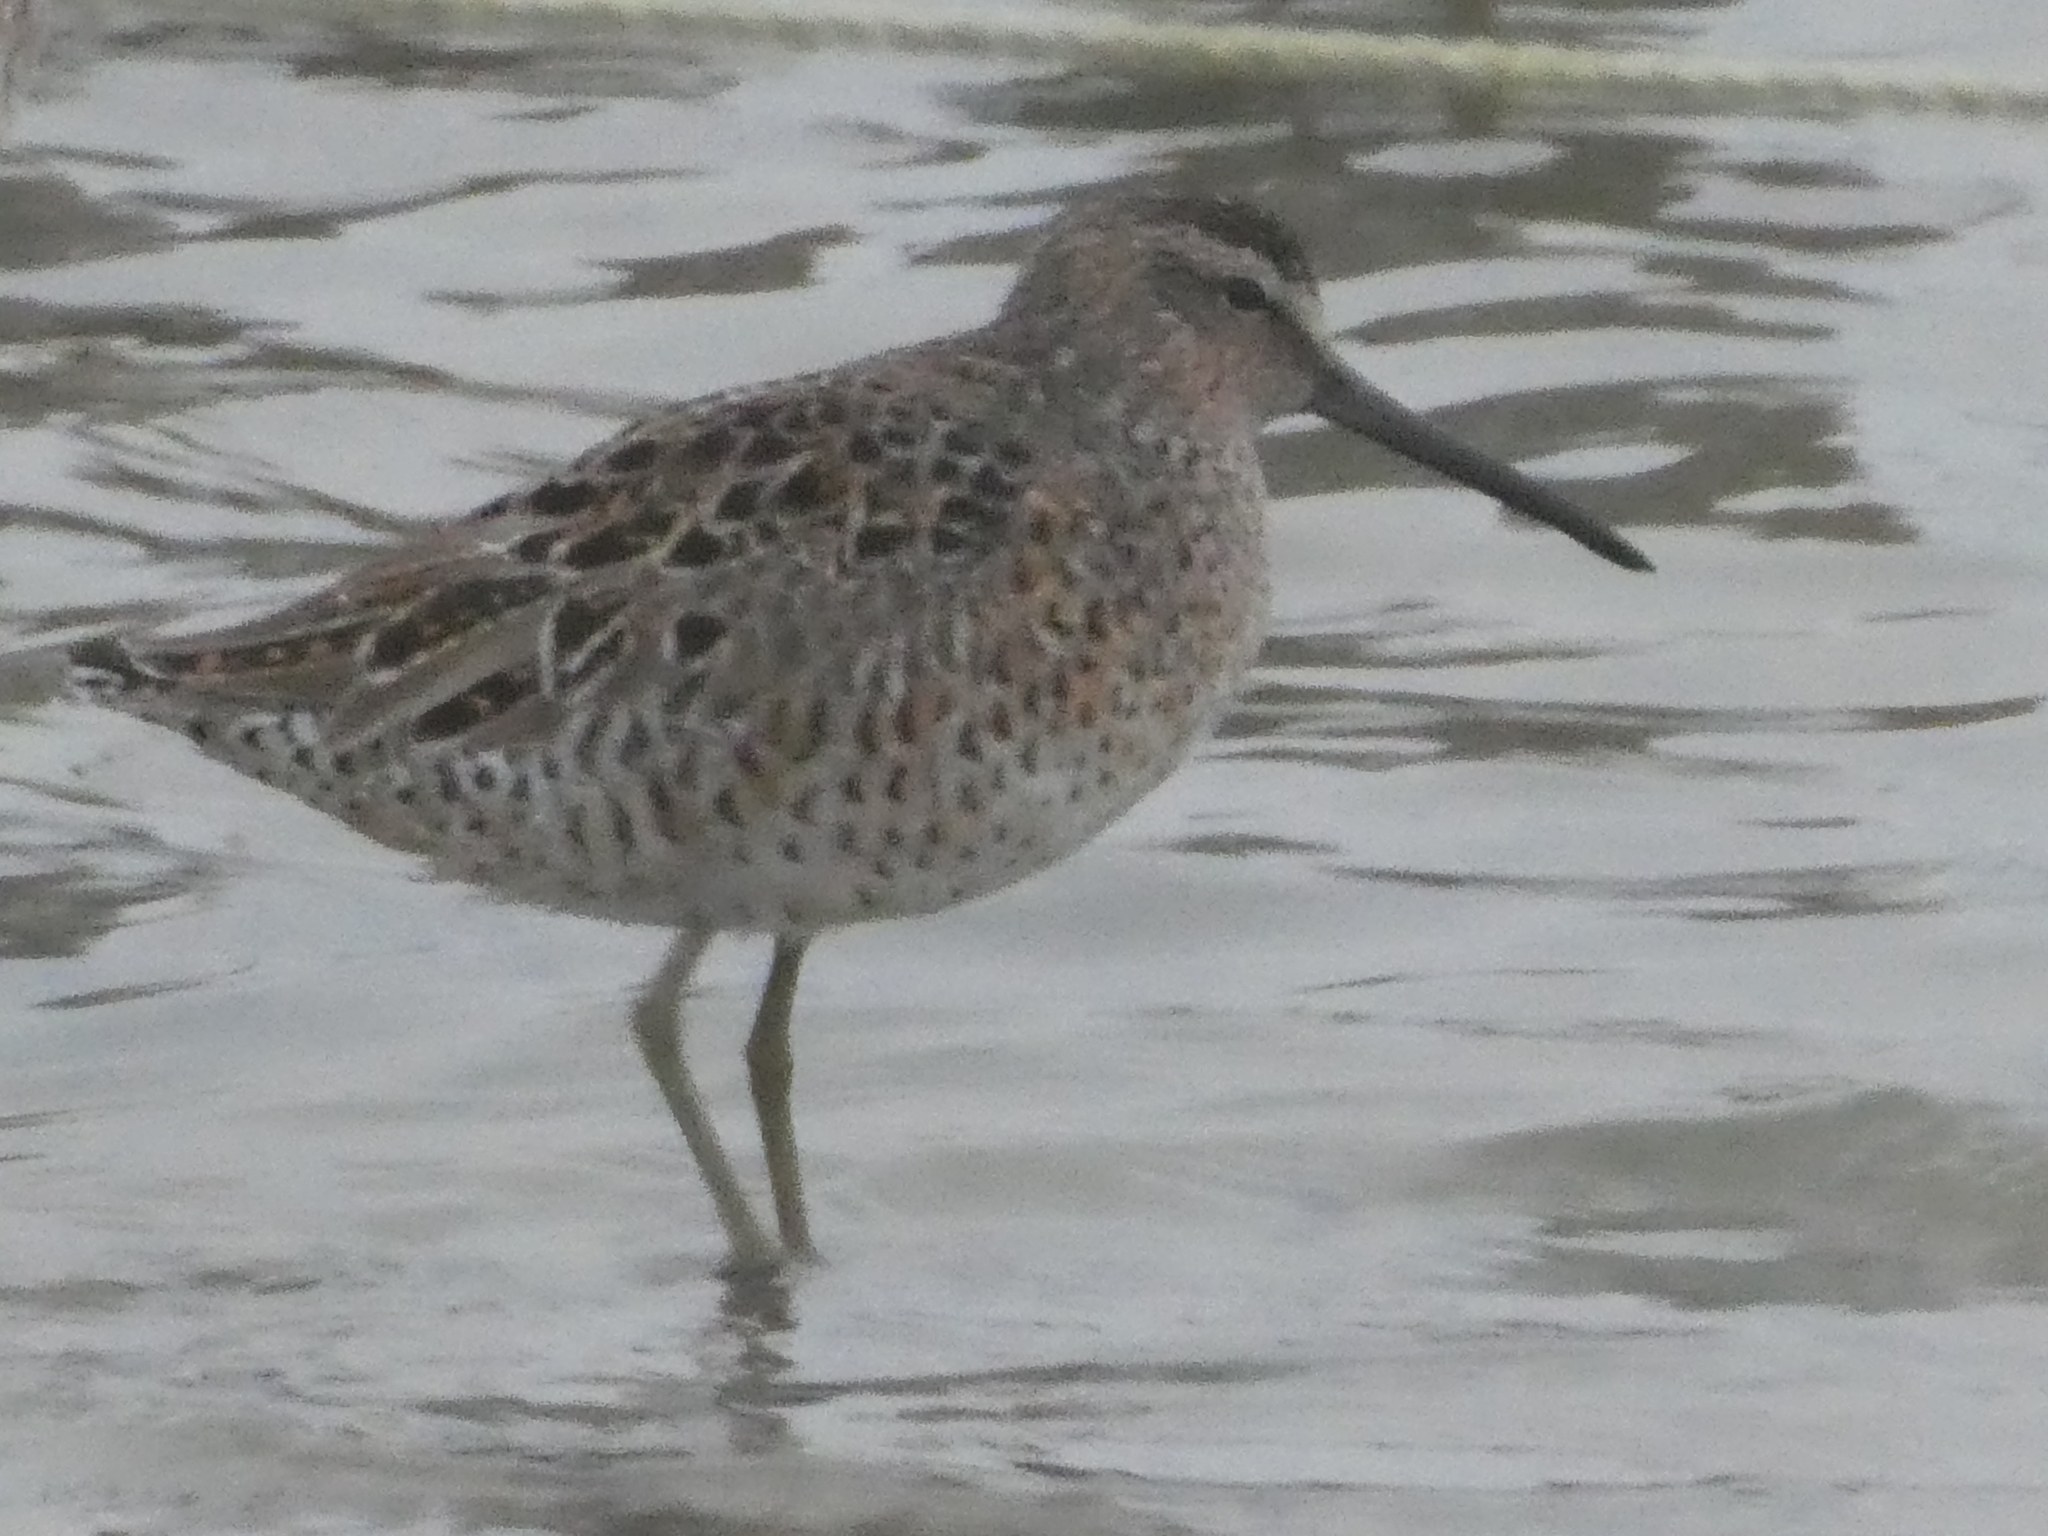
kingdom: Animalia
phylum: Chordata
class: Aves
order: Charadriiformes
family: Scolopacidae
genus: Limnodromus
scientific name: Limnodromus griseus
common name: Short-billed dowitcher
